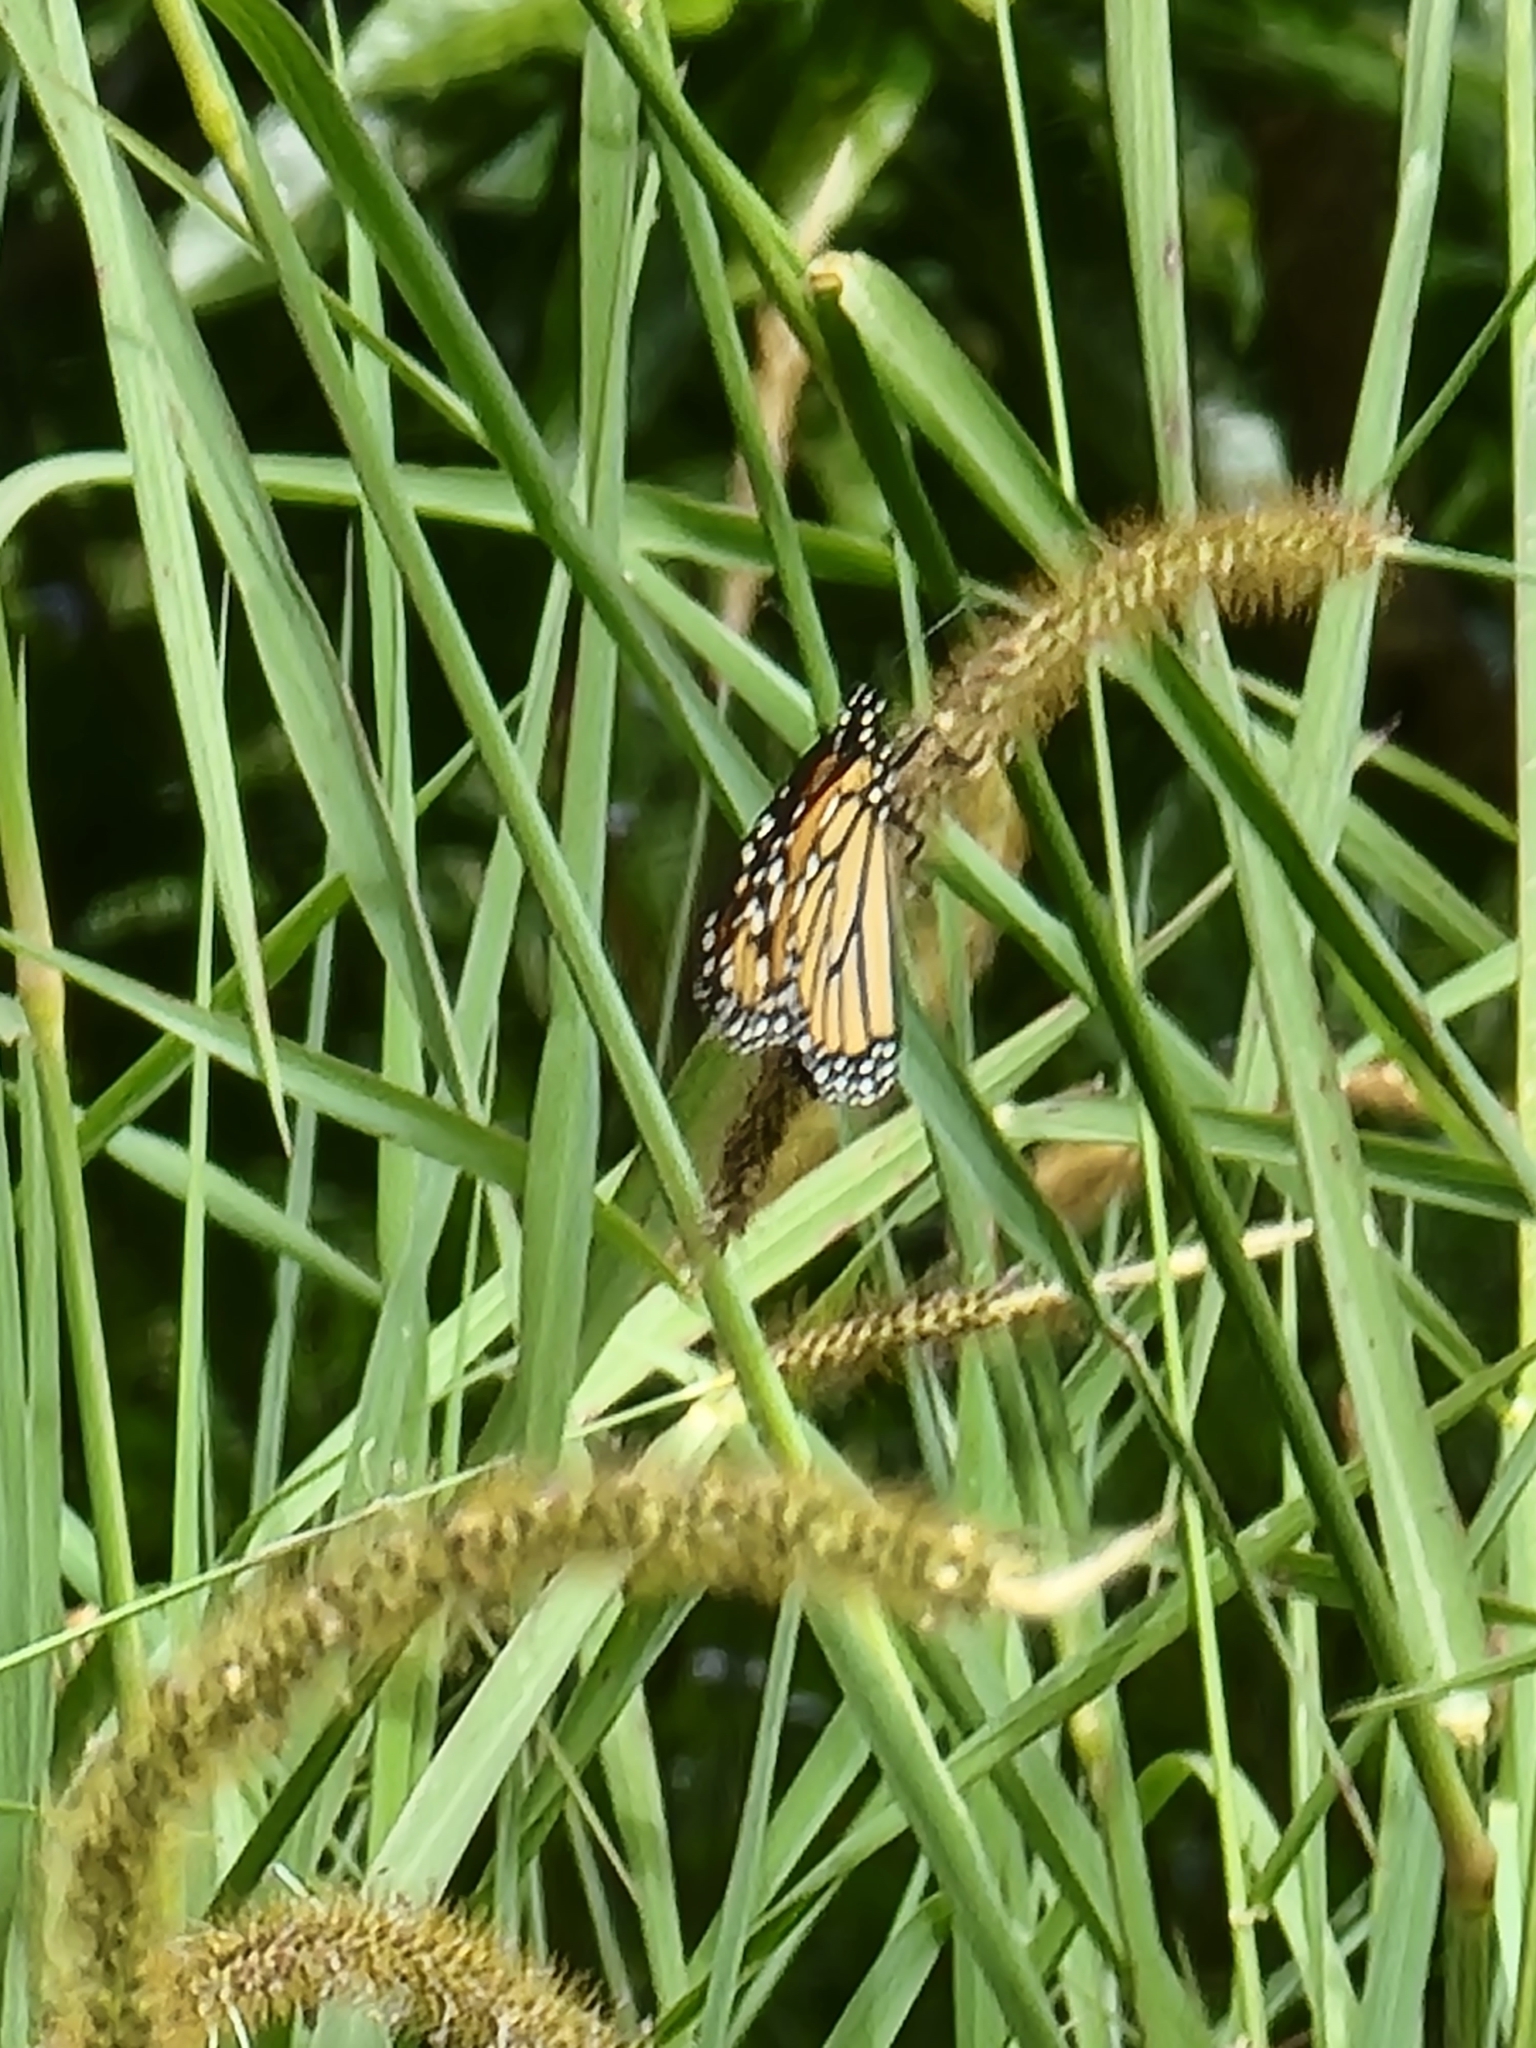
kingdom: Animalia
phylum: Arthropoda
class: Insecta
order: Lepidoptera
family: Nymphalidae
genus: Danaus
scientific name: Danaus plexippus
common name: Monarch
